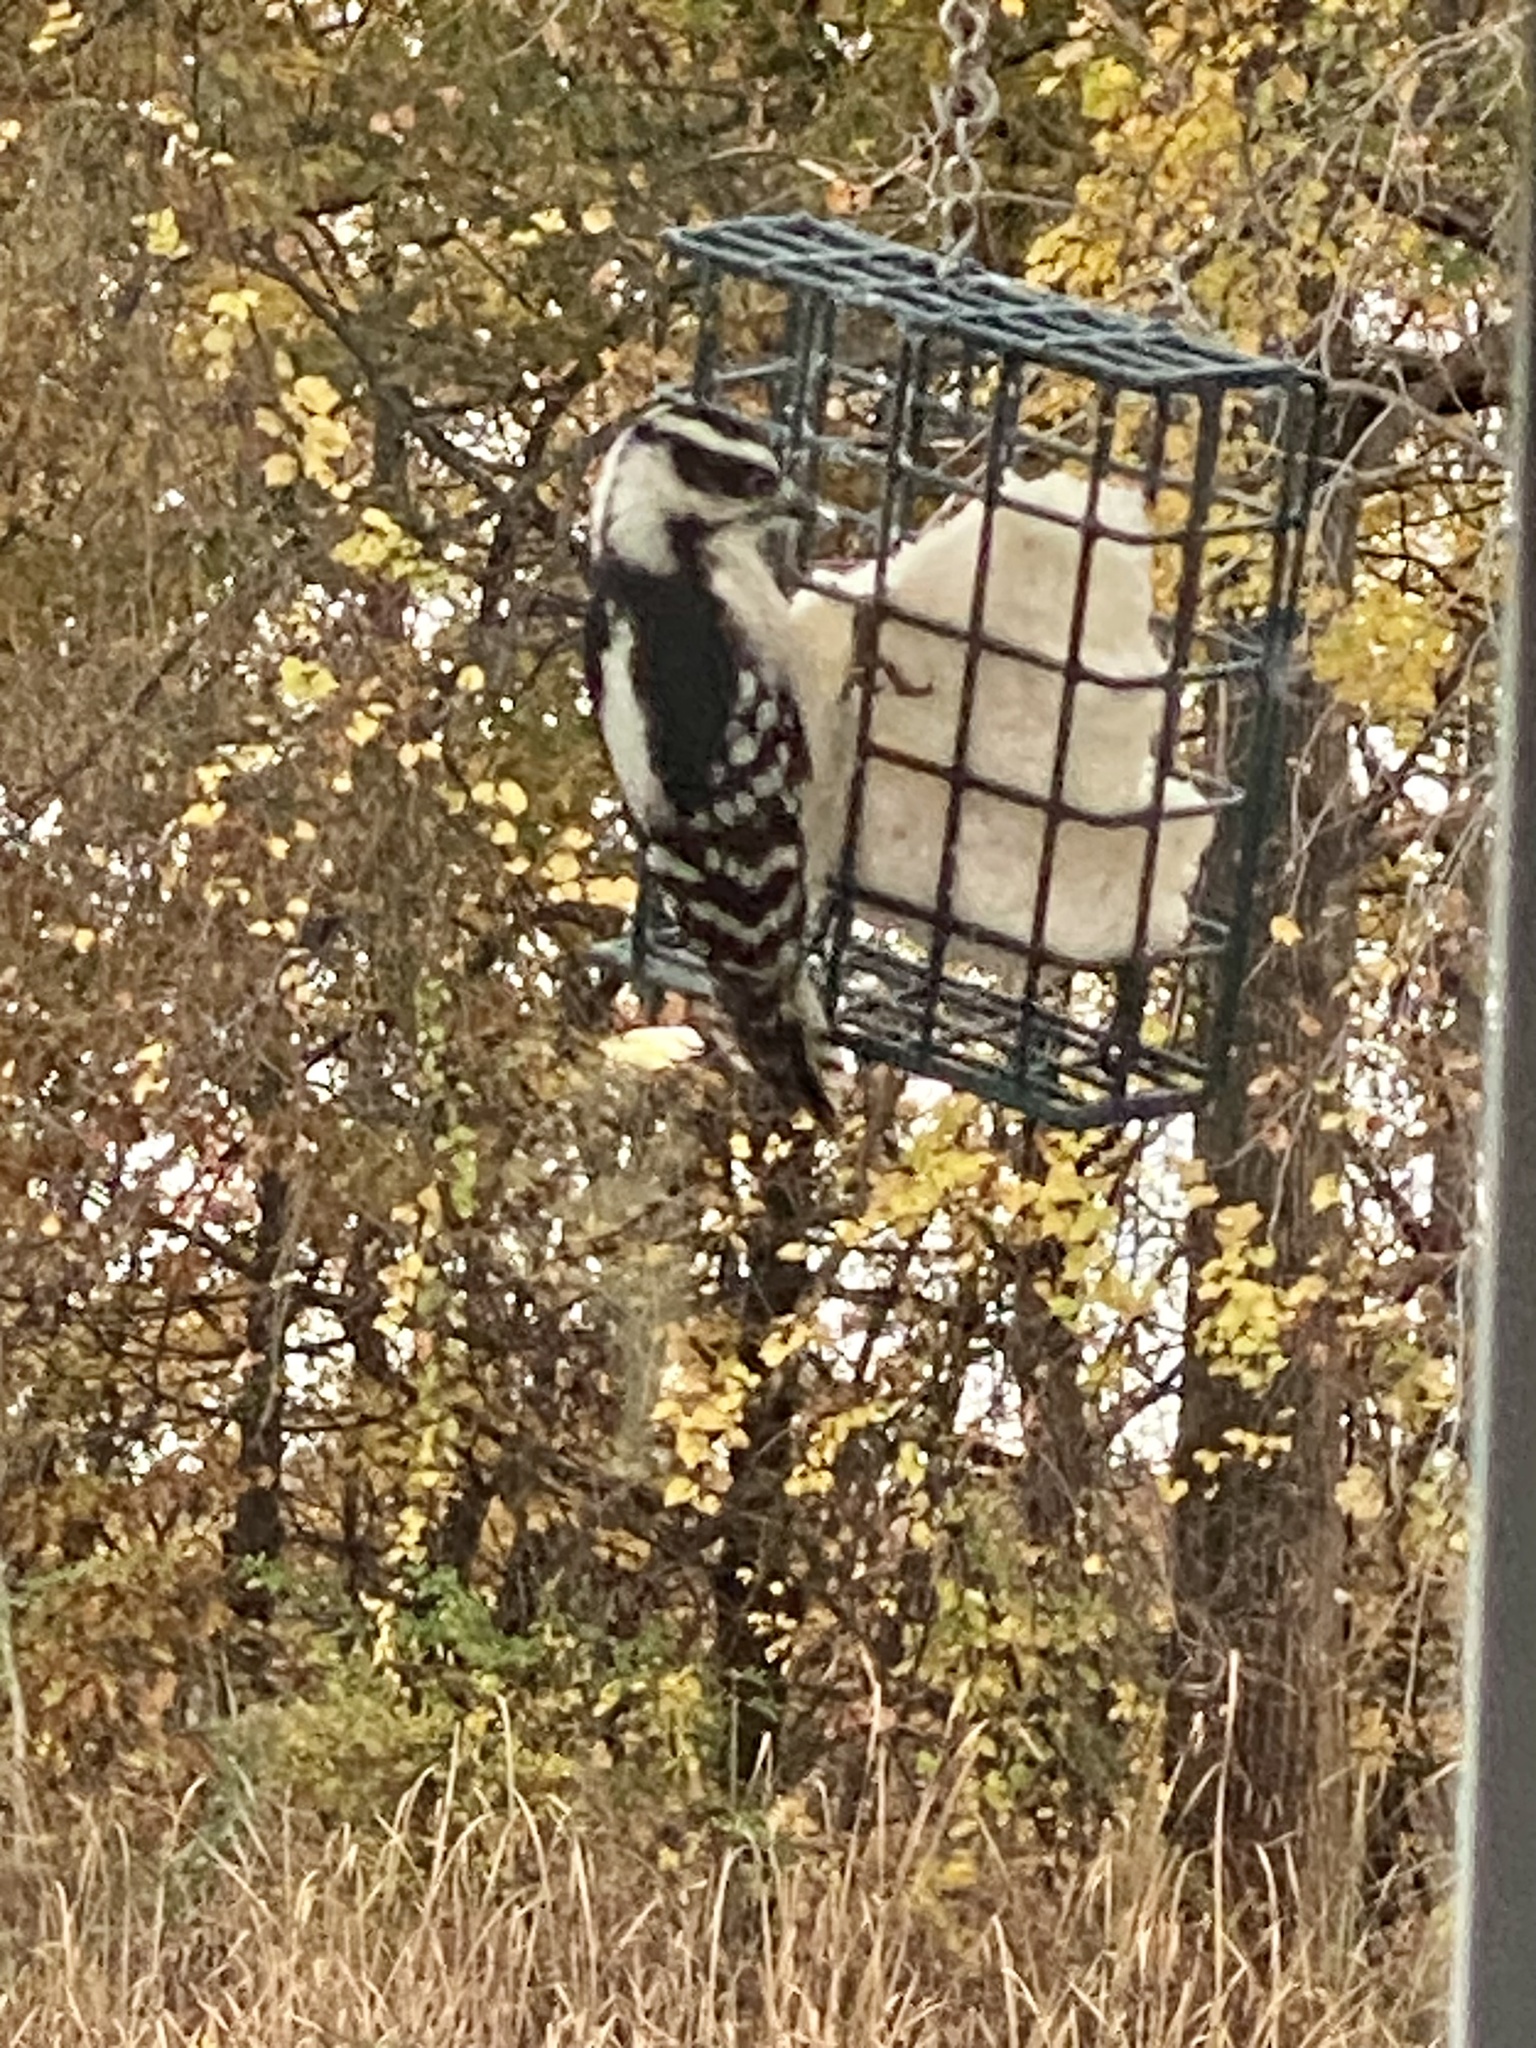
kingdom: Animalia
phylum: Chordata
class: Aves
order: Piciformes
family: Picidae
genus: Dryobates
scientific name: Dryobates pubescens
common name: Downy woodpecker
